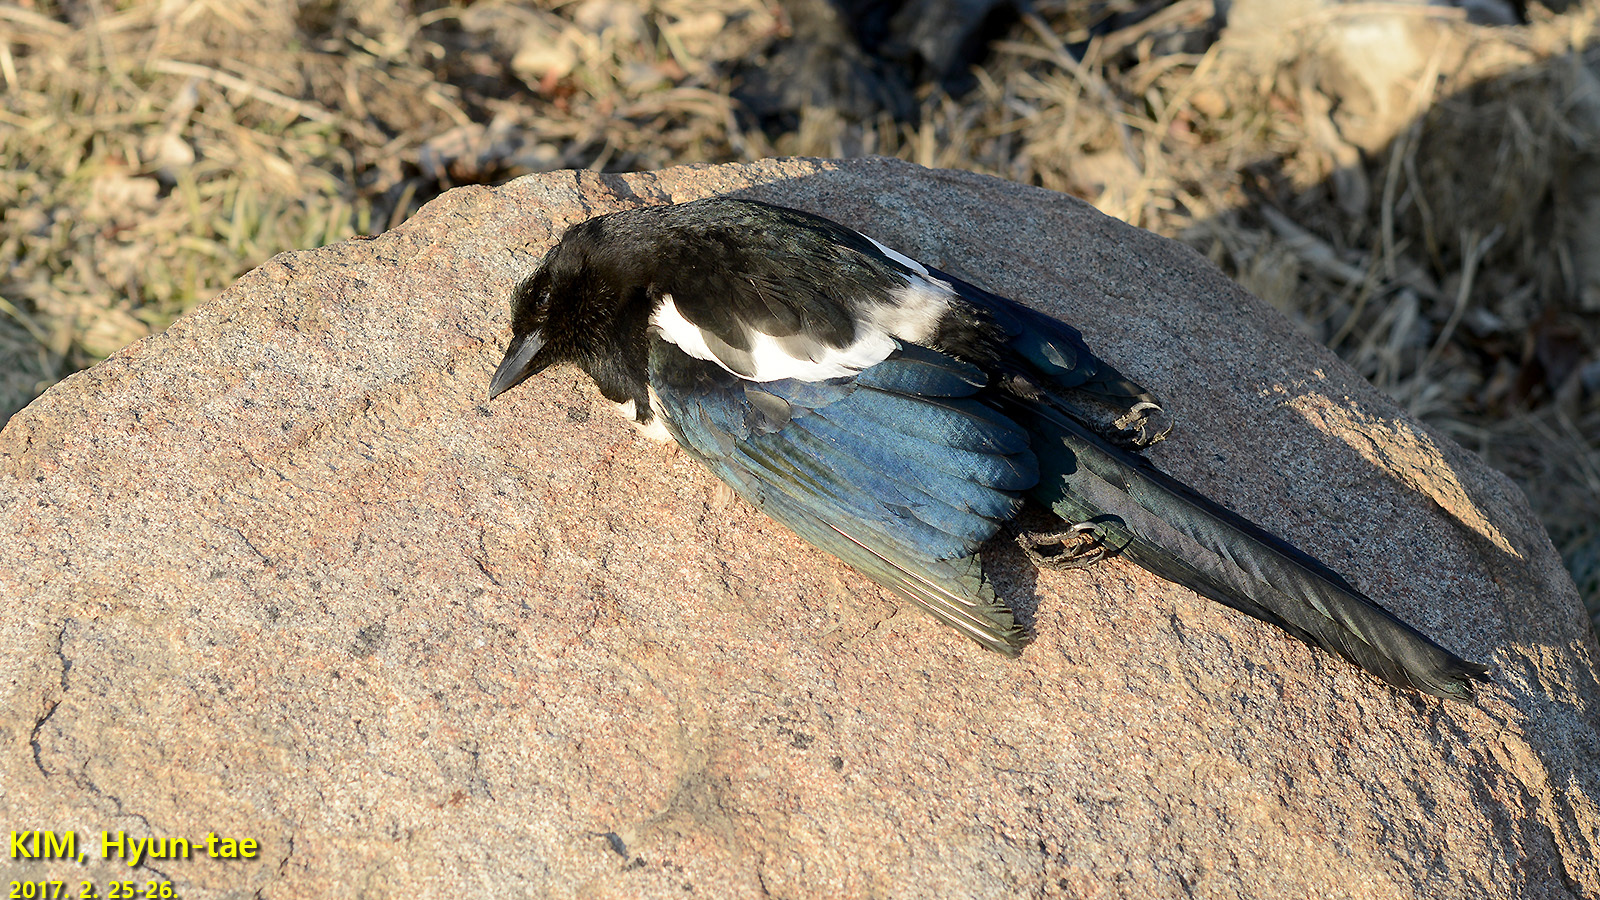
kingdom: Animalia
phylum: Chordata
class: Aves
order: Passeriformes
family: Corvidae
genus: Pica
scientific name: Pica serica
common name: Oriental magpie
